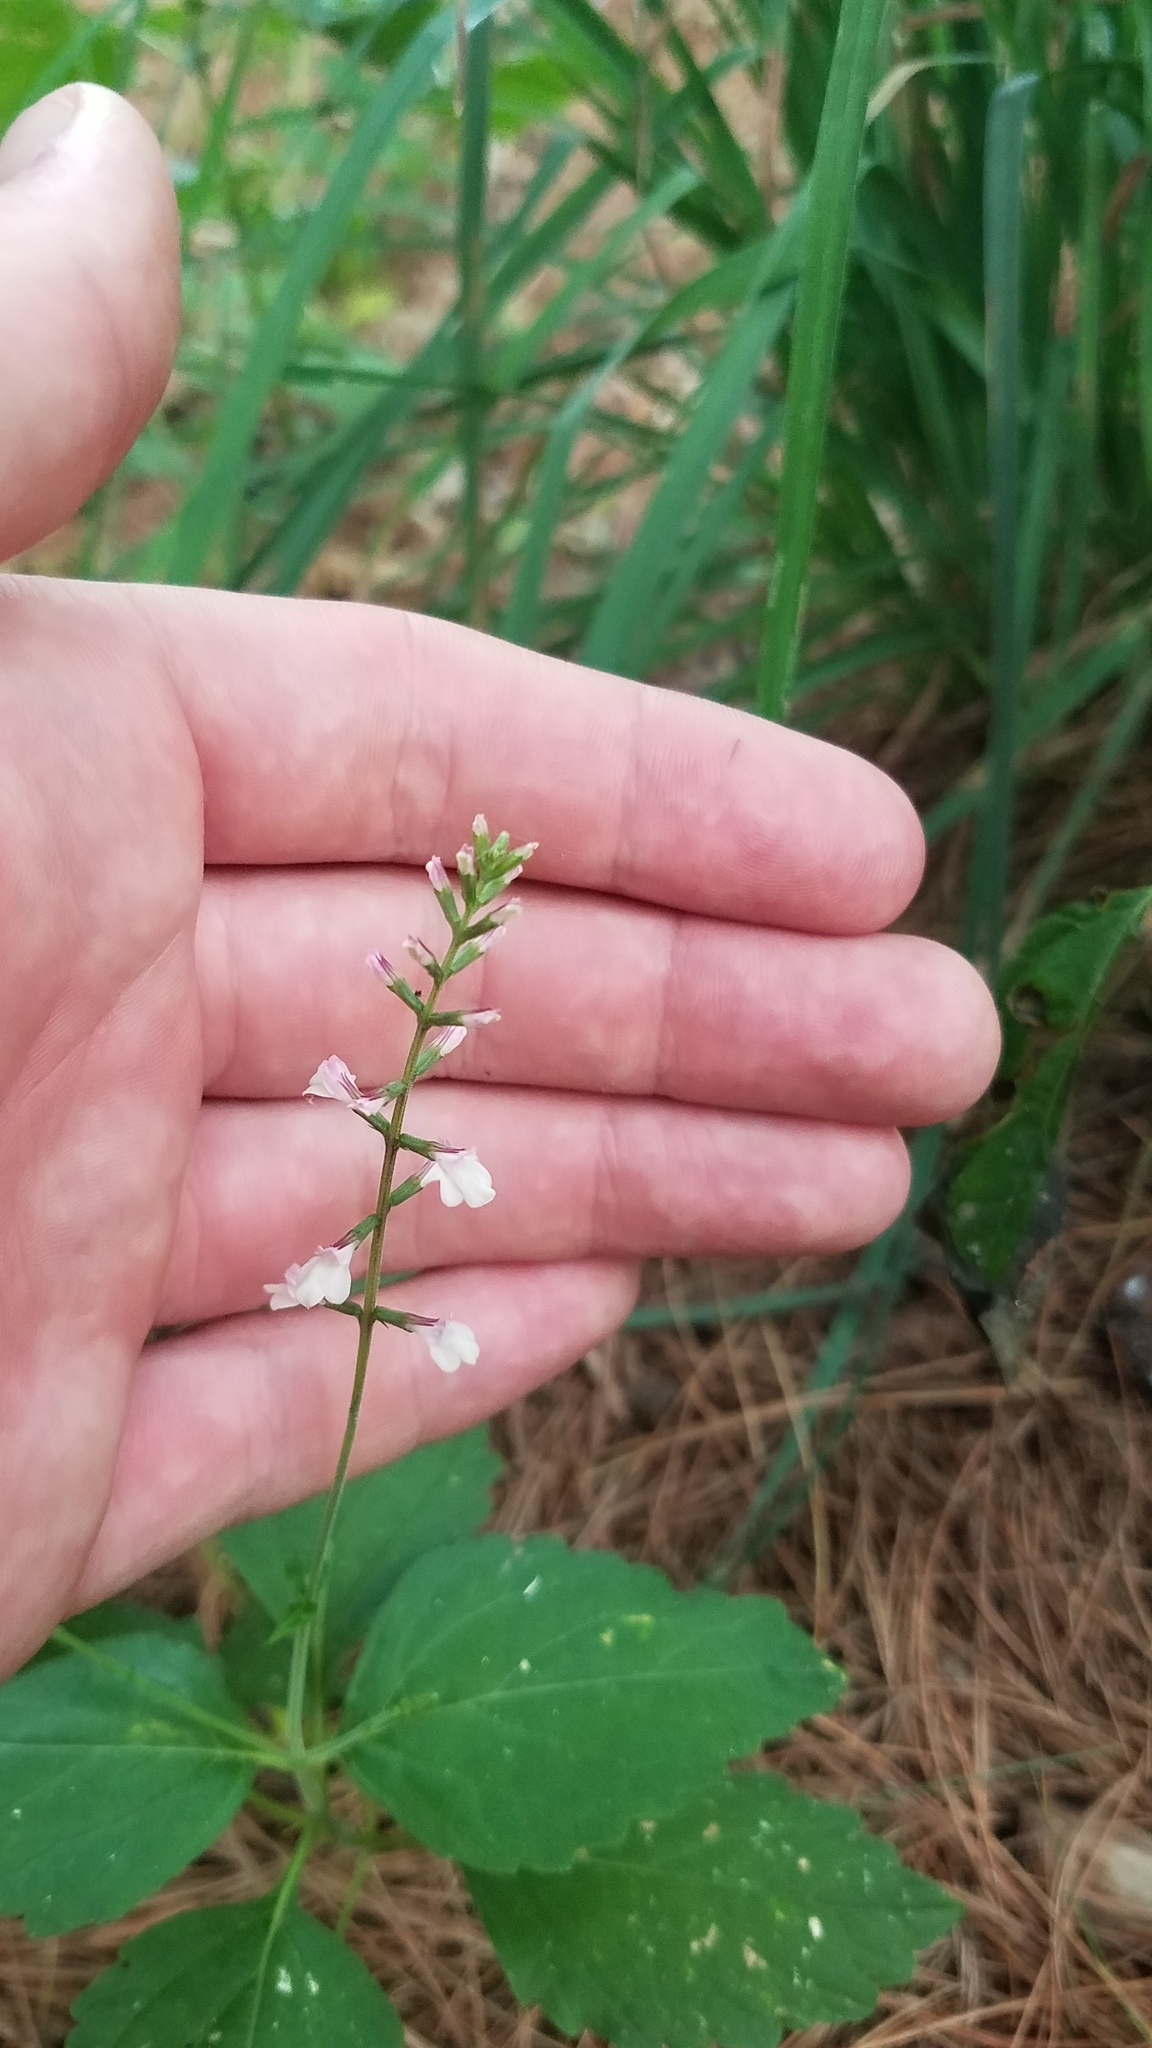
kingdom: Plantae
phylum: Tracheophyta
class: Magnoliopsida
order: Lamiales
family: Phrymaceae
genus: Phryma
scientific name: Phryma leptostachya
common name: American lopseed
